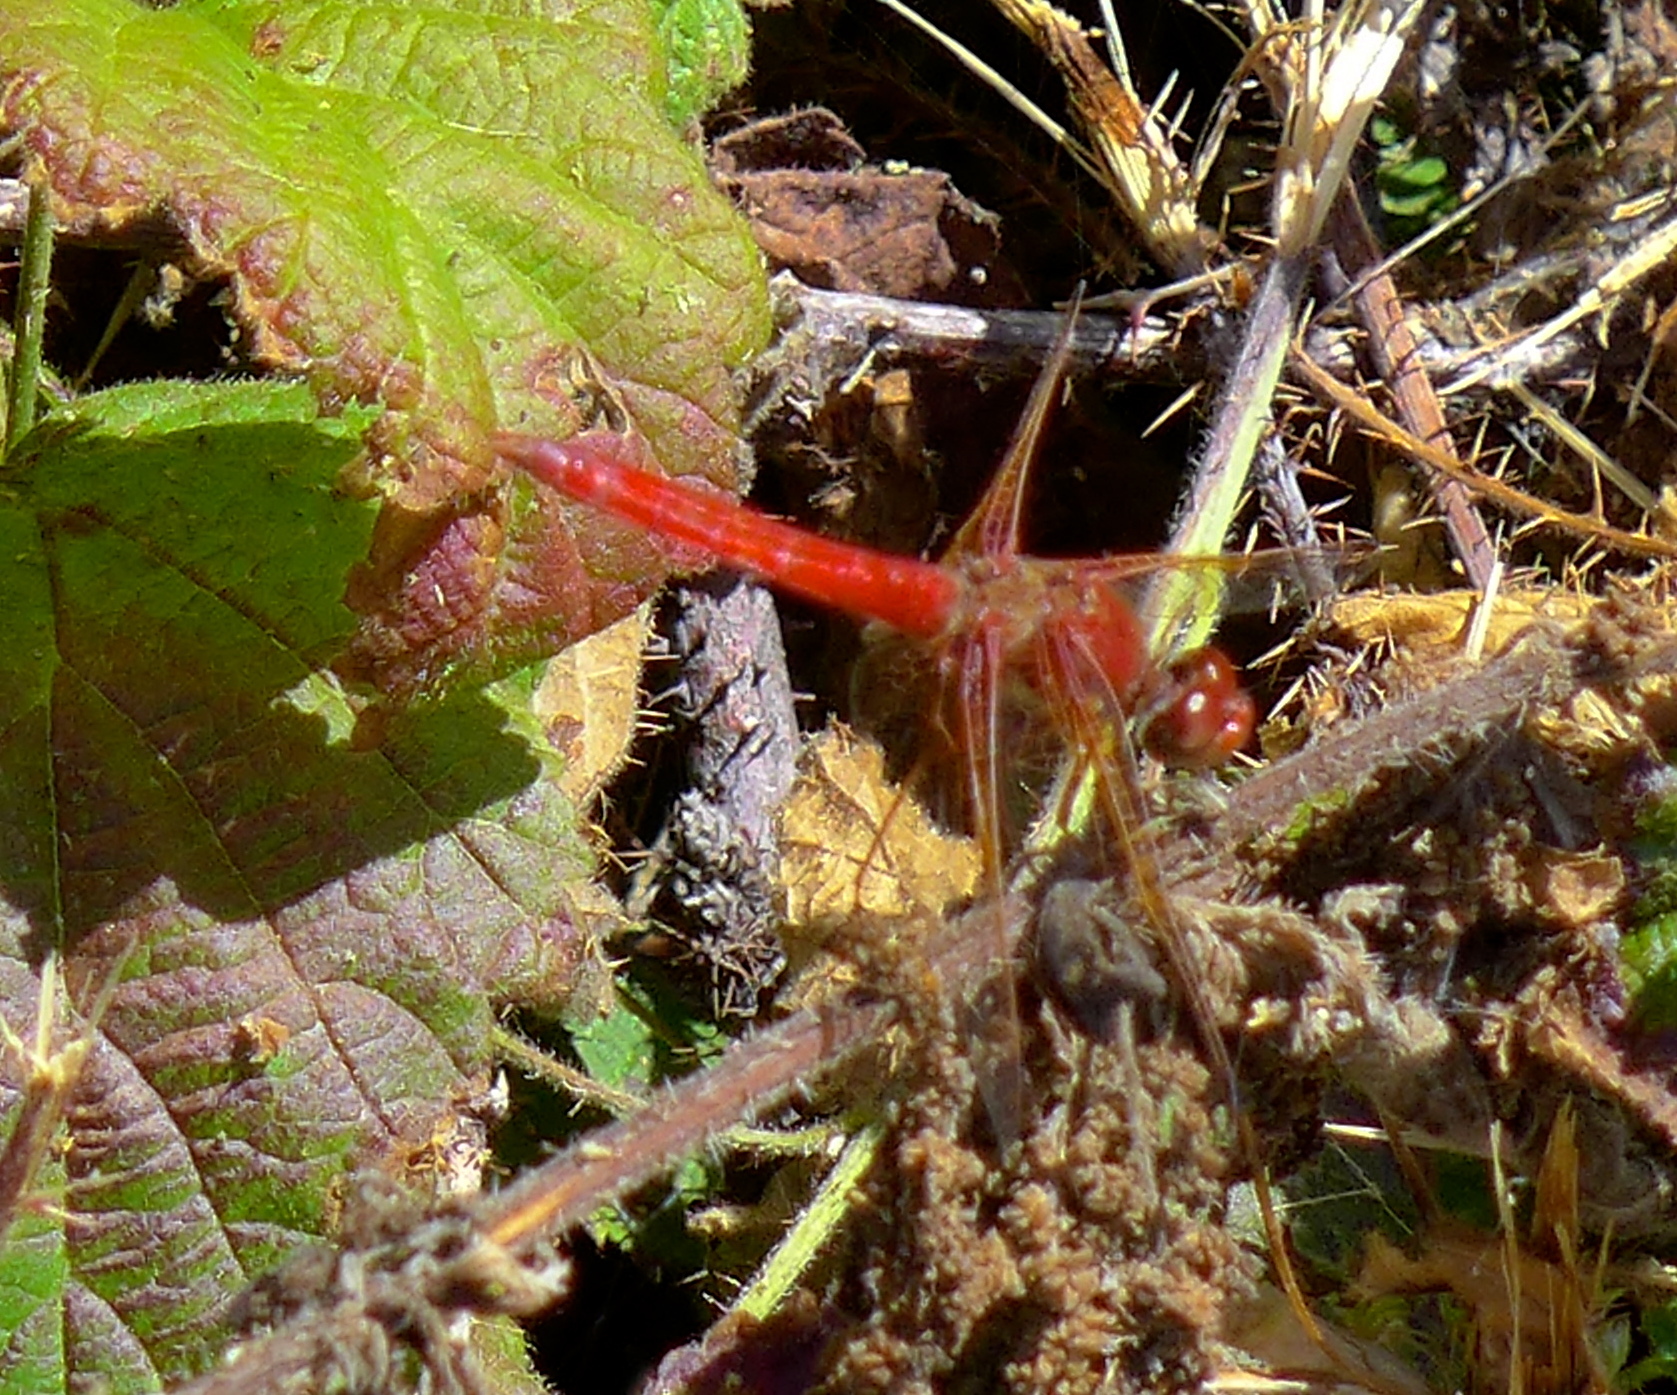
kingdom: Animalia
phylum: Arthropoda
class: Insecta
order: Odonata
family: Libellulidae
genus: Sympetrum
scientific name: Sympetrum illotum
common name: Cardinal meadowhawk
